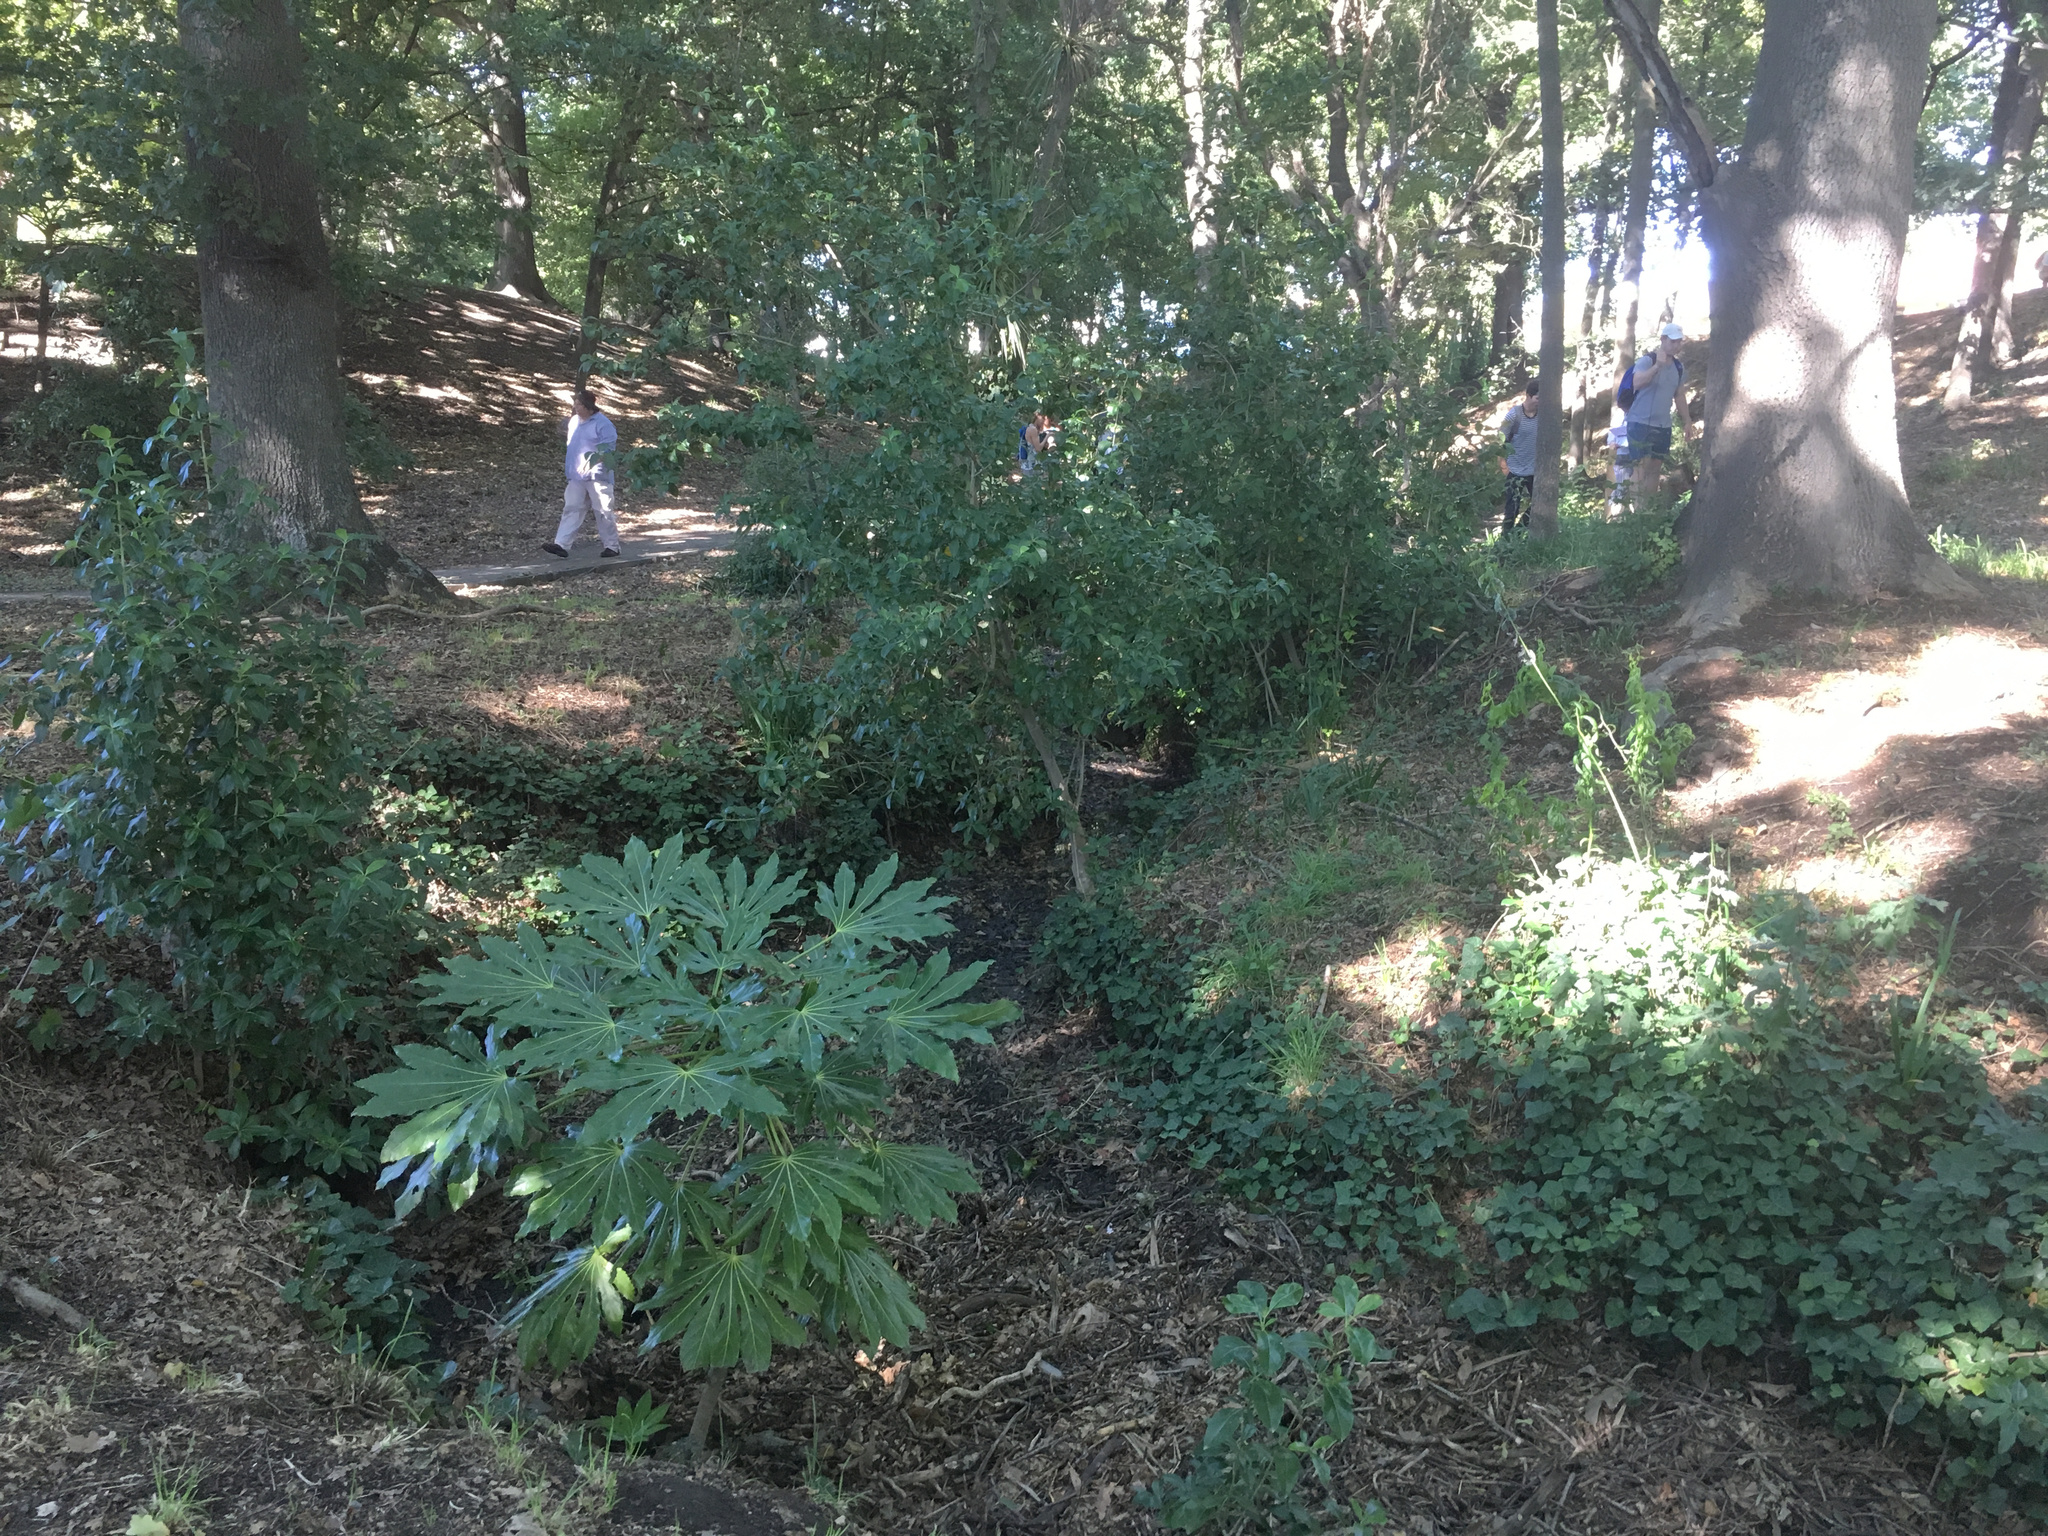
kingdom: Plantae
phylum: Tracheophyta
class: Magnoliopsida
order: Apiales
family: Araliaceae
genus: Fatsia
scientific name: Fatsia japonica
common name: Fatsia
